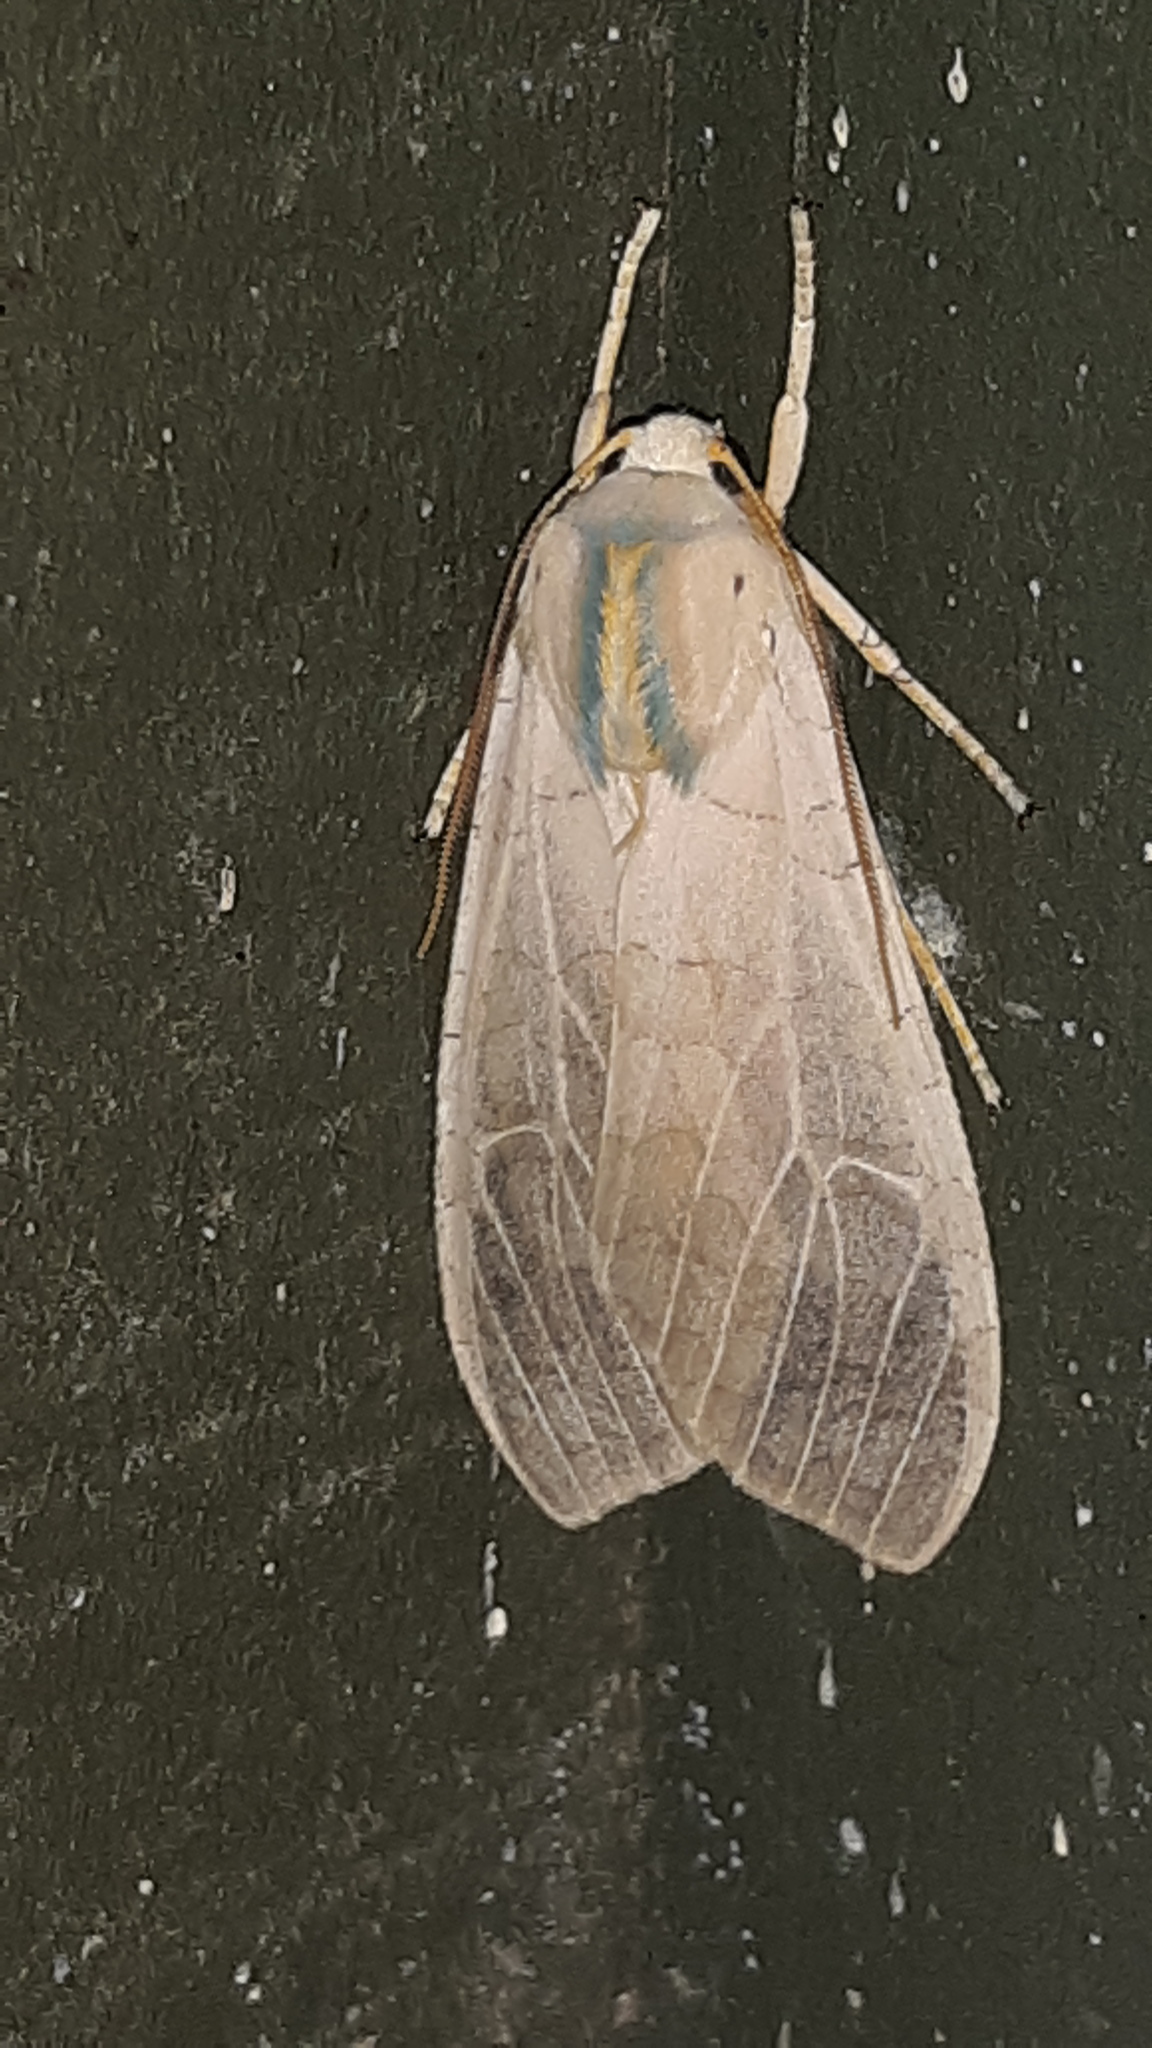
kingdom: Animalia
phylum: Arthropoda
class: Insecta
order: Lepidoptera
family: Erebidae
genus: Halysidota
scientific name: Halysidota
